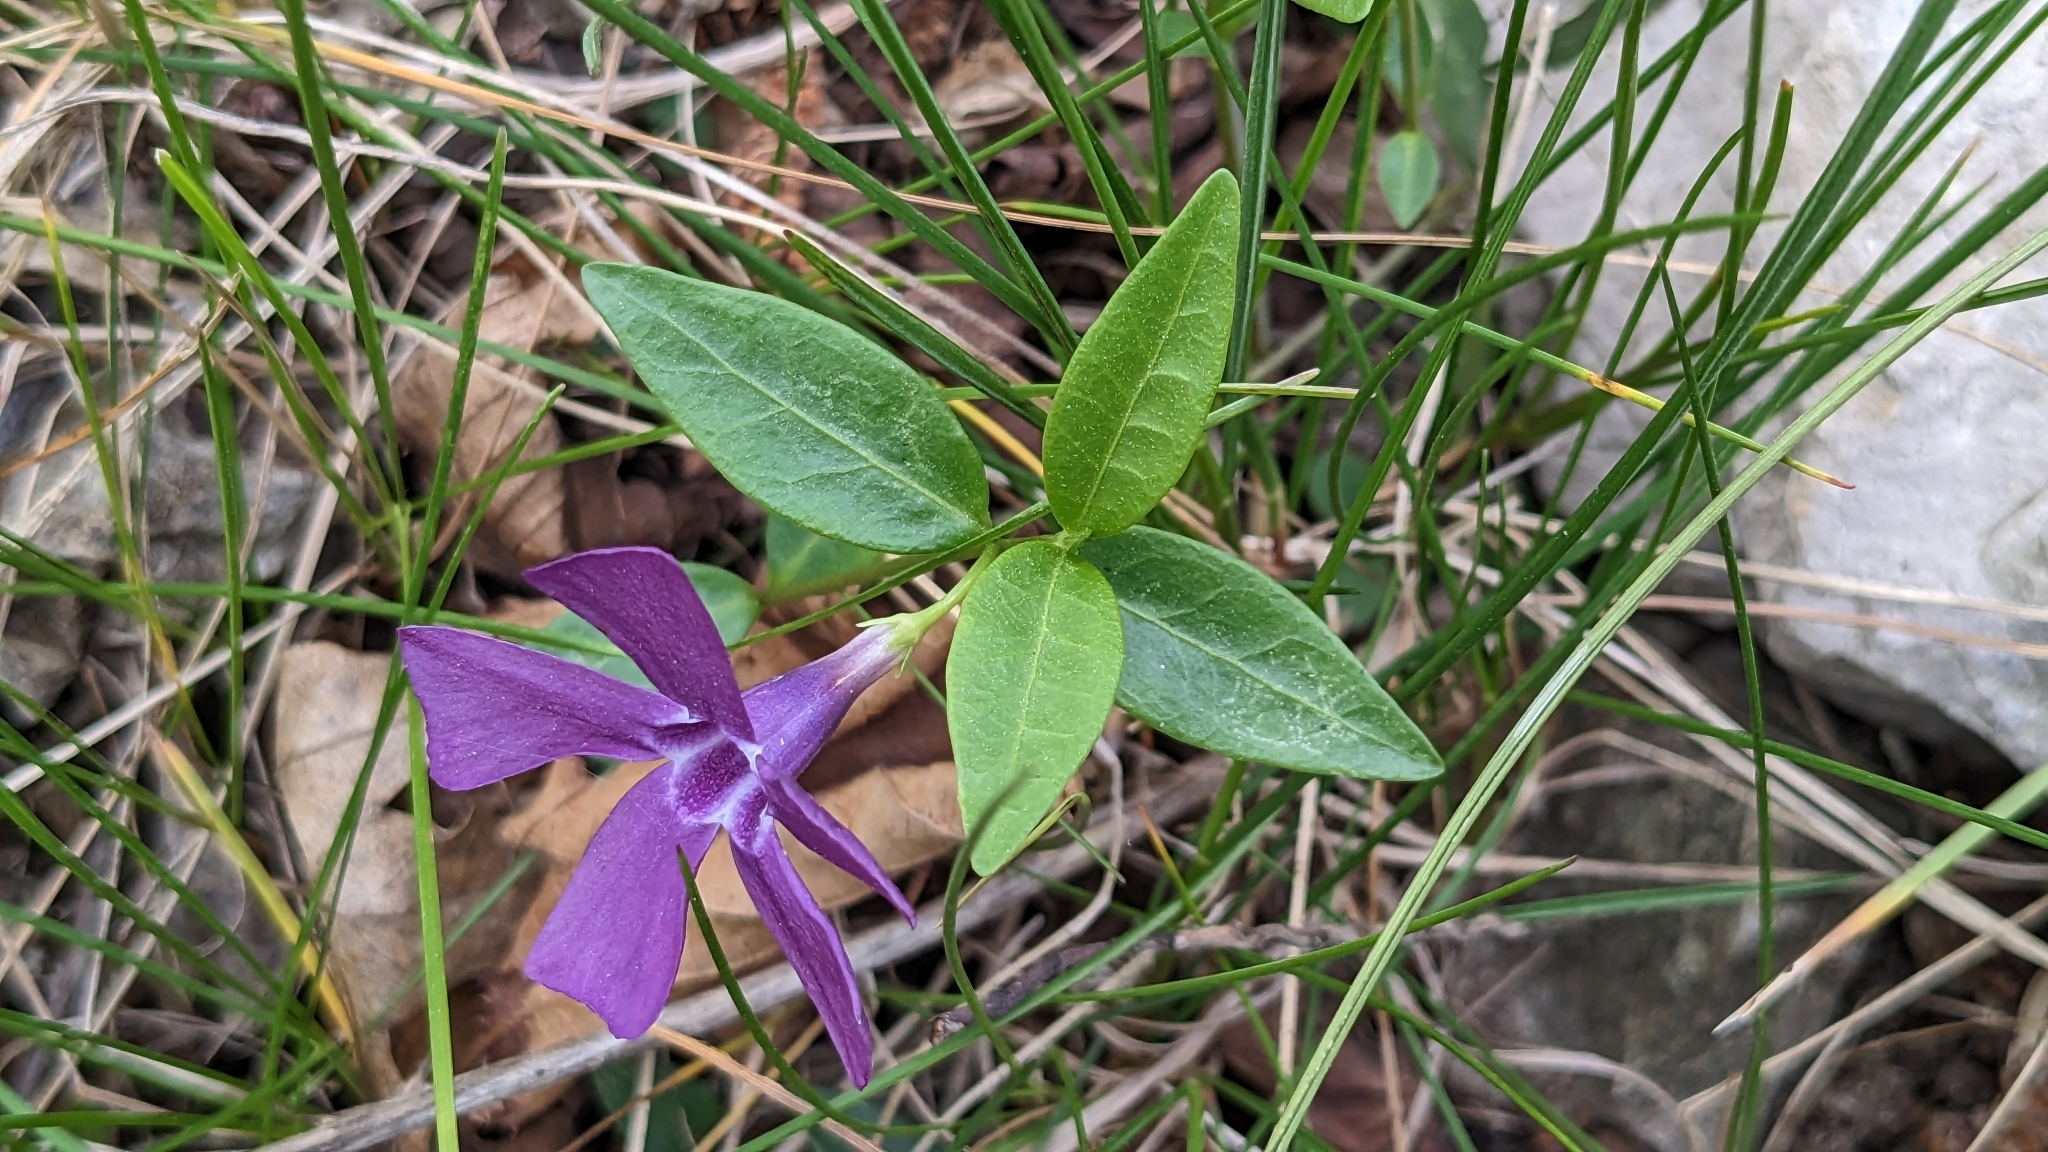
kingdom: Plantae
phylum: Tracheophyta
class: Magnoliopsida
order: Gentianales
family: Apocynaceae
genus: Vinca
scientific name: Vinca minor
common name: Lesser periwinkle
